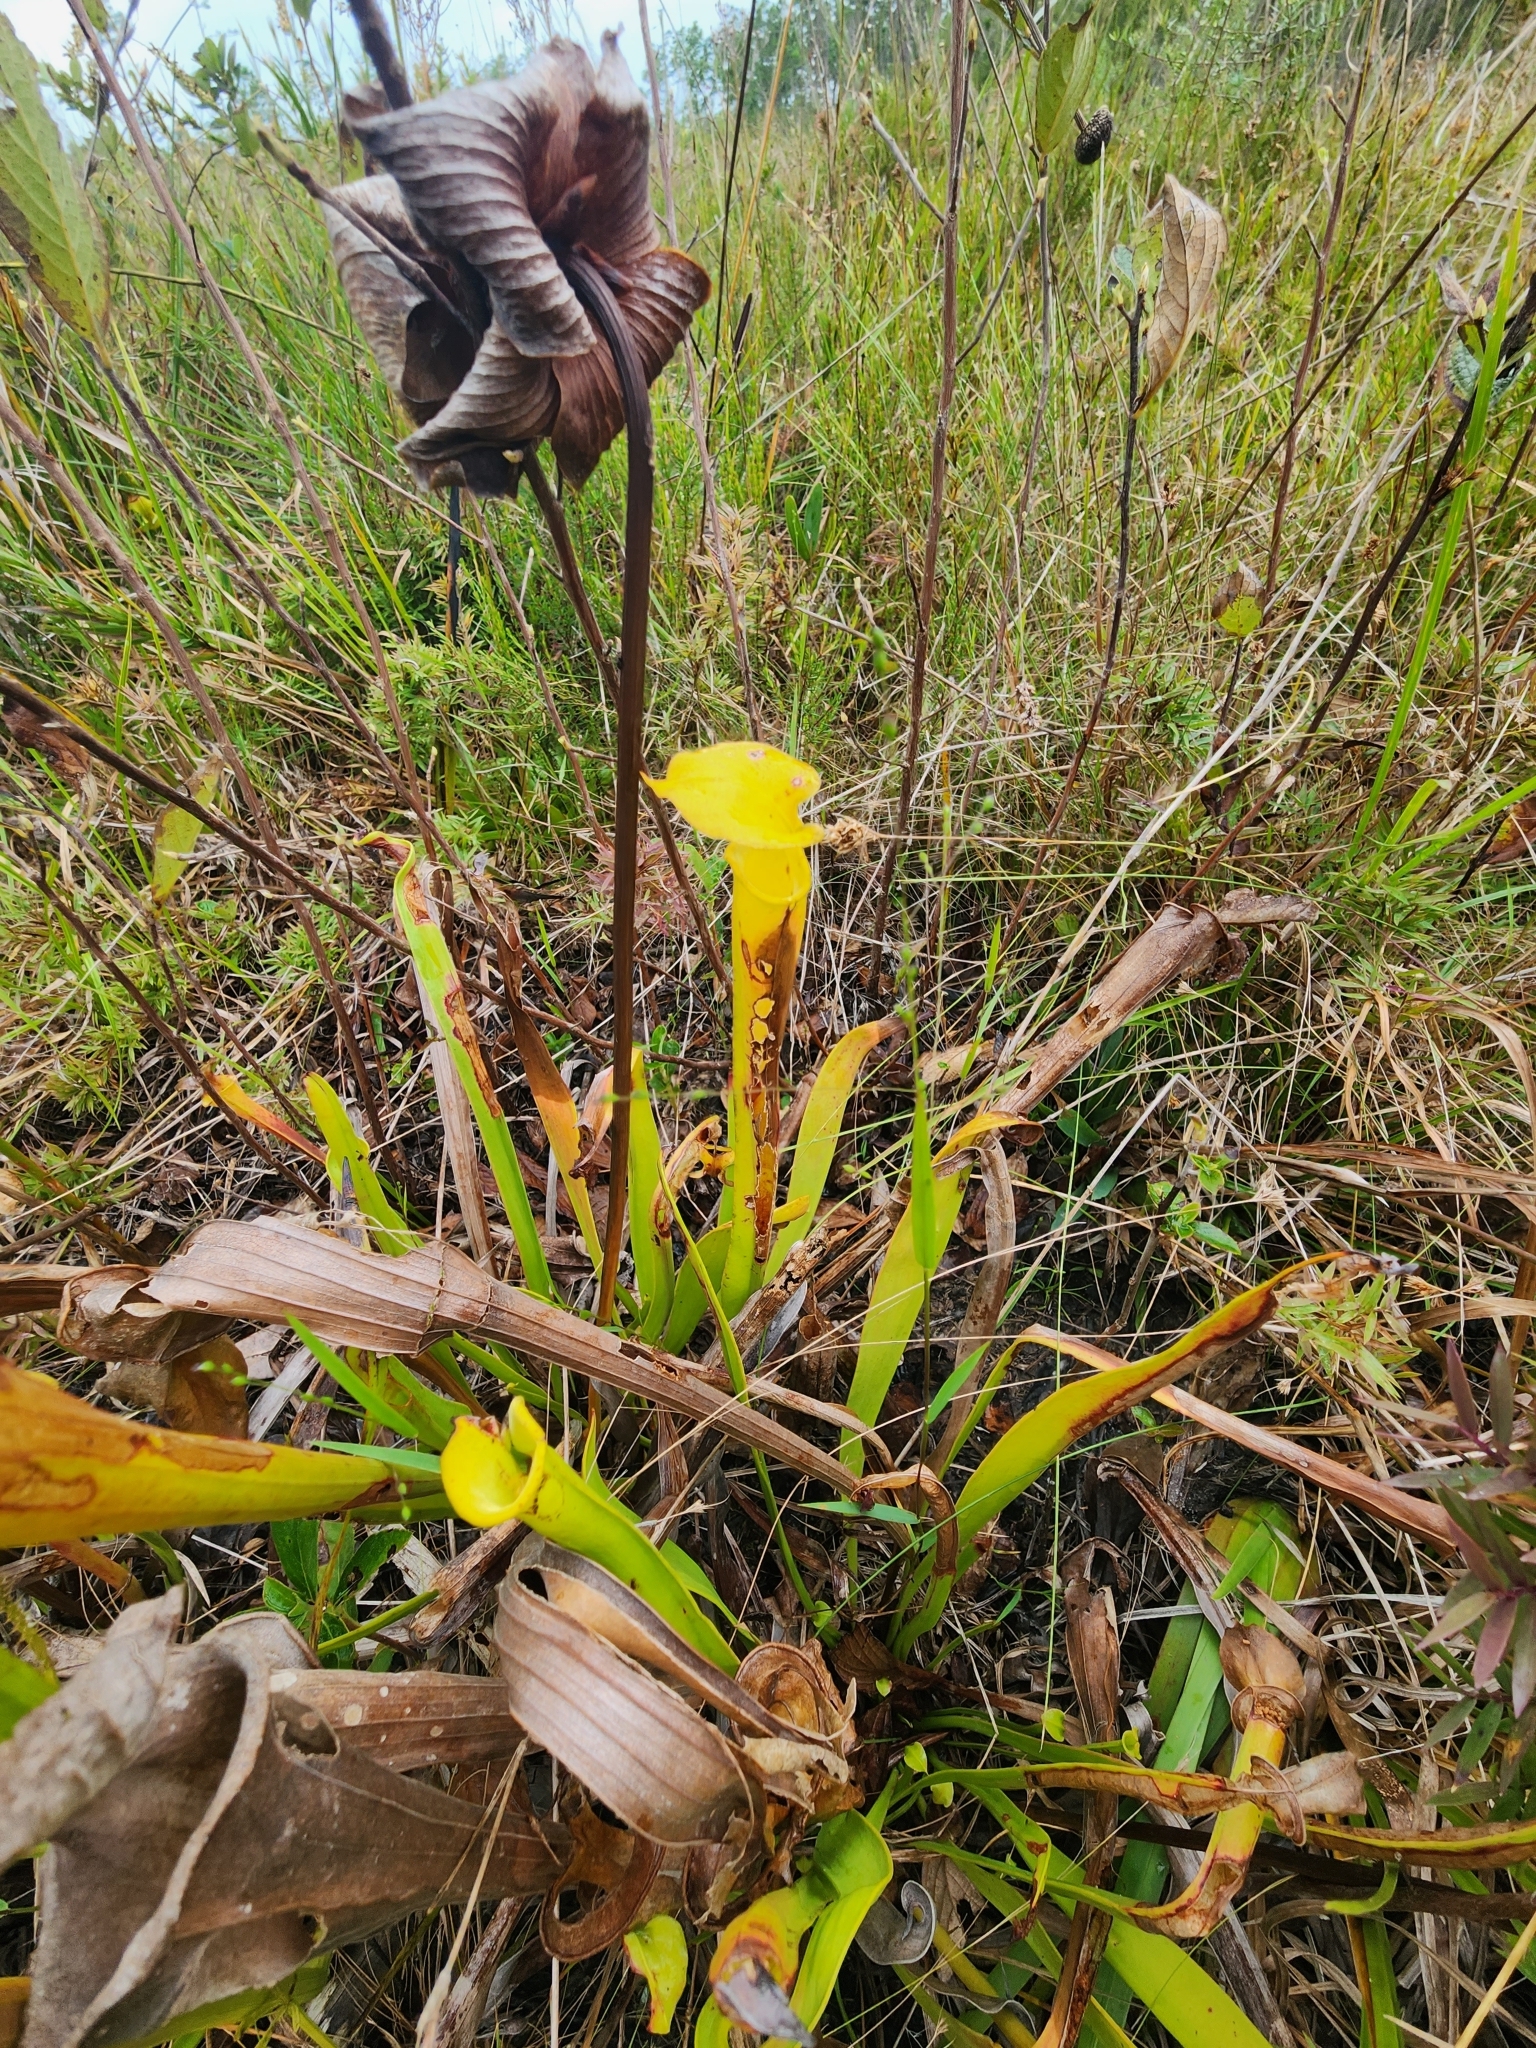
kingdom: Plantae
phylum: Tracheophyta
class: Magnoliopsida
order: Ericales
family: Sarraceniaceae
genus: Sarracenia
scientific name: Sarracenia flava
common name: Trumpets
